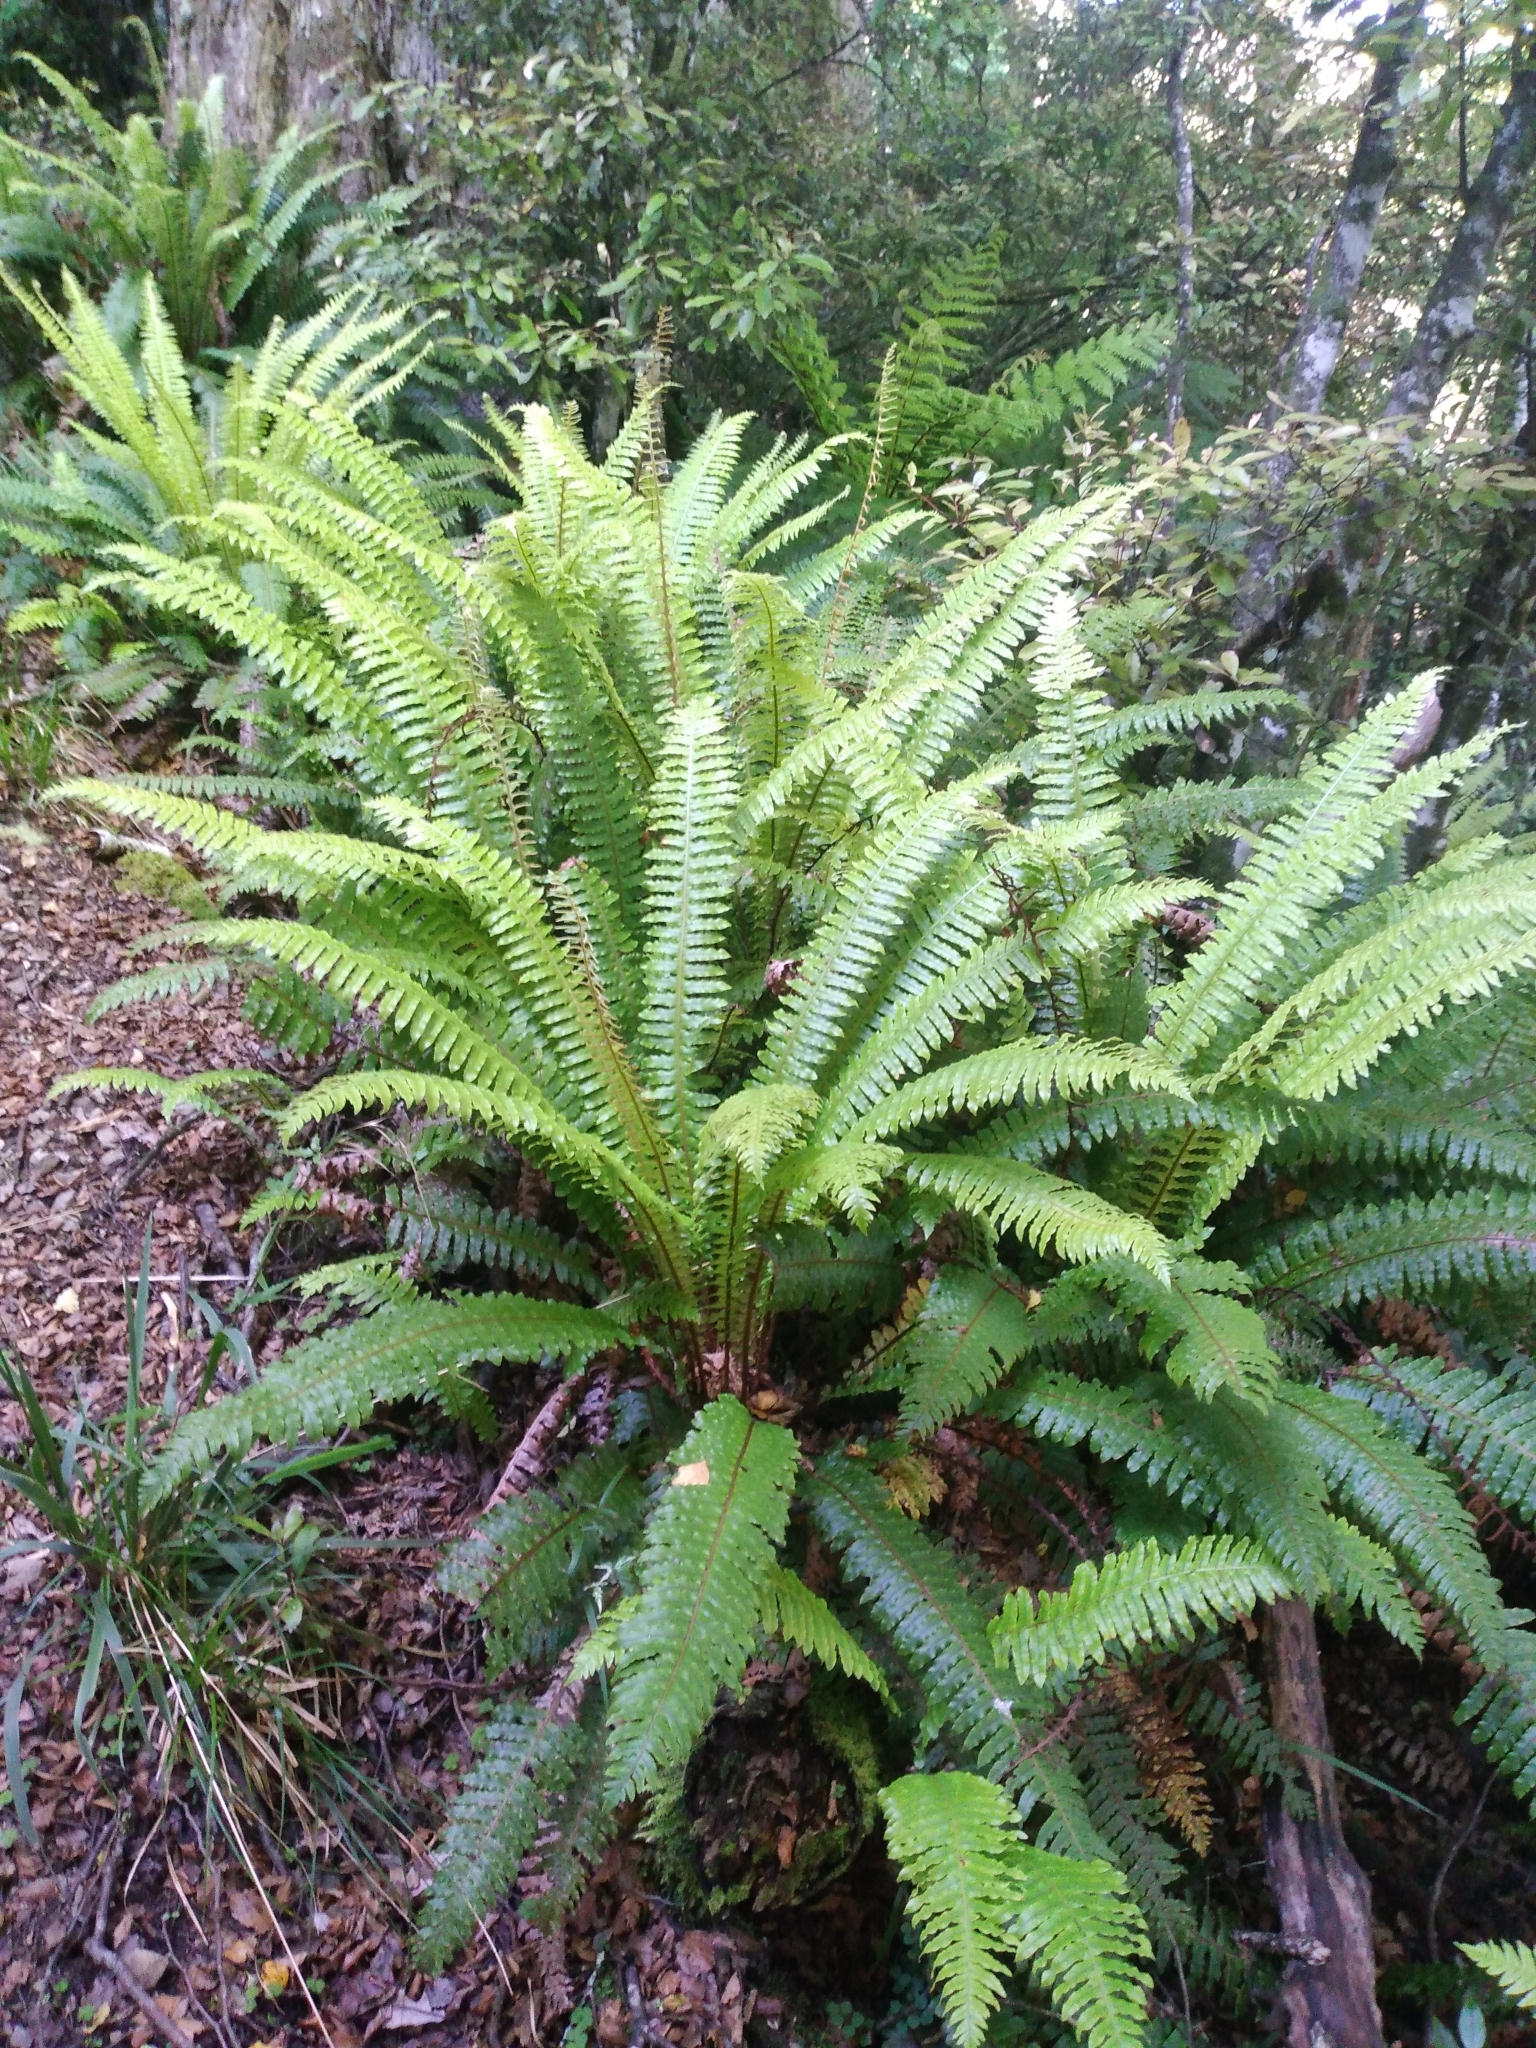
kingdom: Plantae
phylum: Tracheophyta
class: Polypodiopsida
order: Polypodiales
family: Blechnaceae
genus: Lomaria
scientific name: Lomaria discolor
